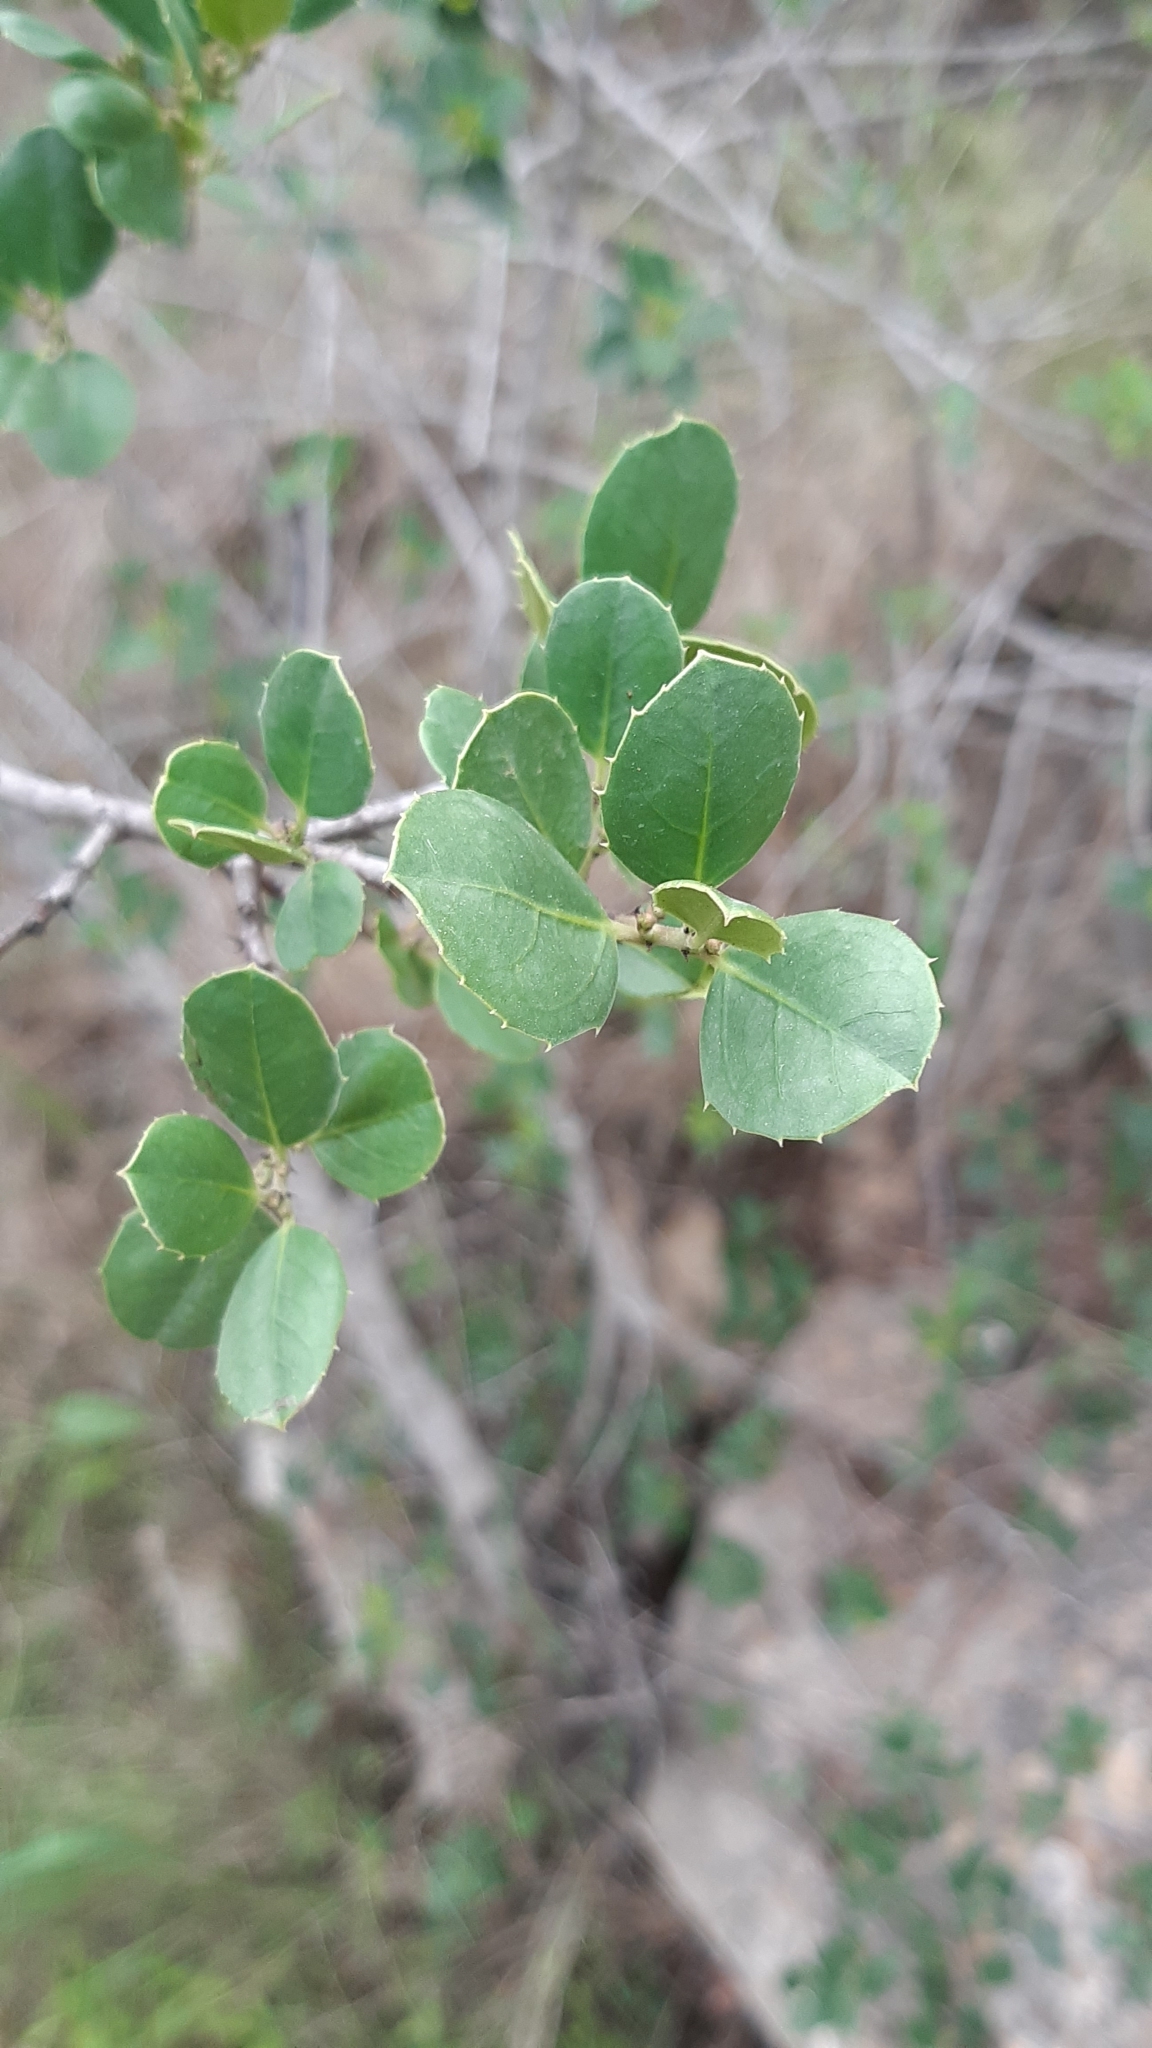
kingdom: Plantae
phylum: Tracheophyta
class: Magnoliopsida
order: Rosales
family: Rhamnaceae
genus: Rhamnus
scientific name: Rhamnus alaternus
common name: Mediterranean buckthorn
